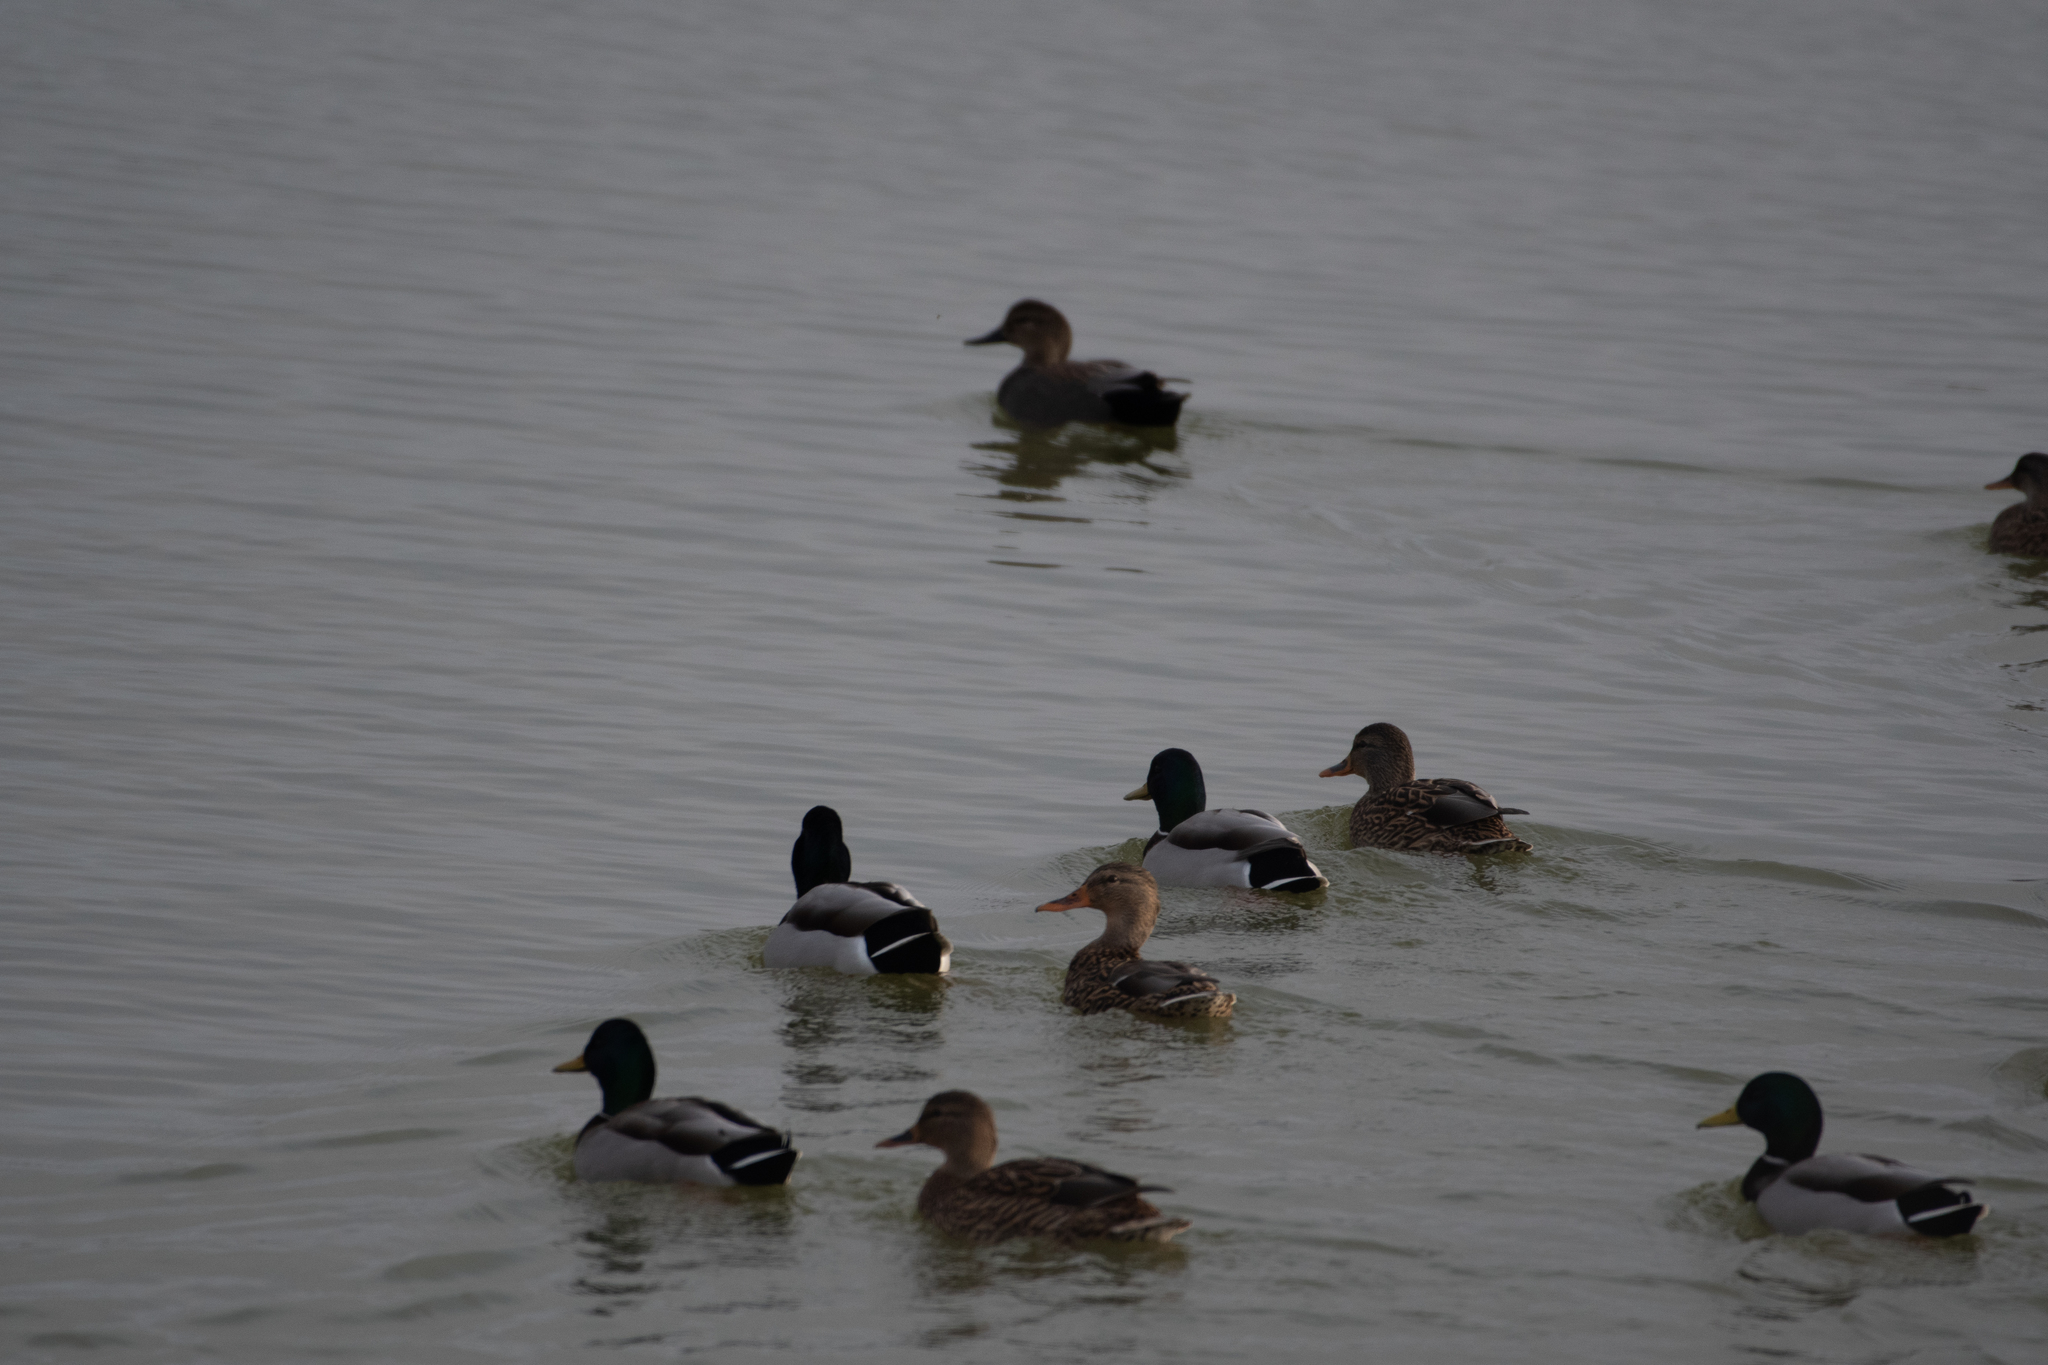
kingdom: Animalia
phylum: Chordata
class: Aves
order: Anseriformes
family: Anatidae
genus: Anas
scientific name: Anas platyrhynchos
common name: Mallard
